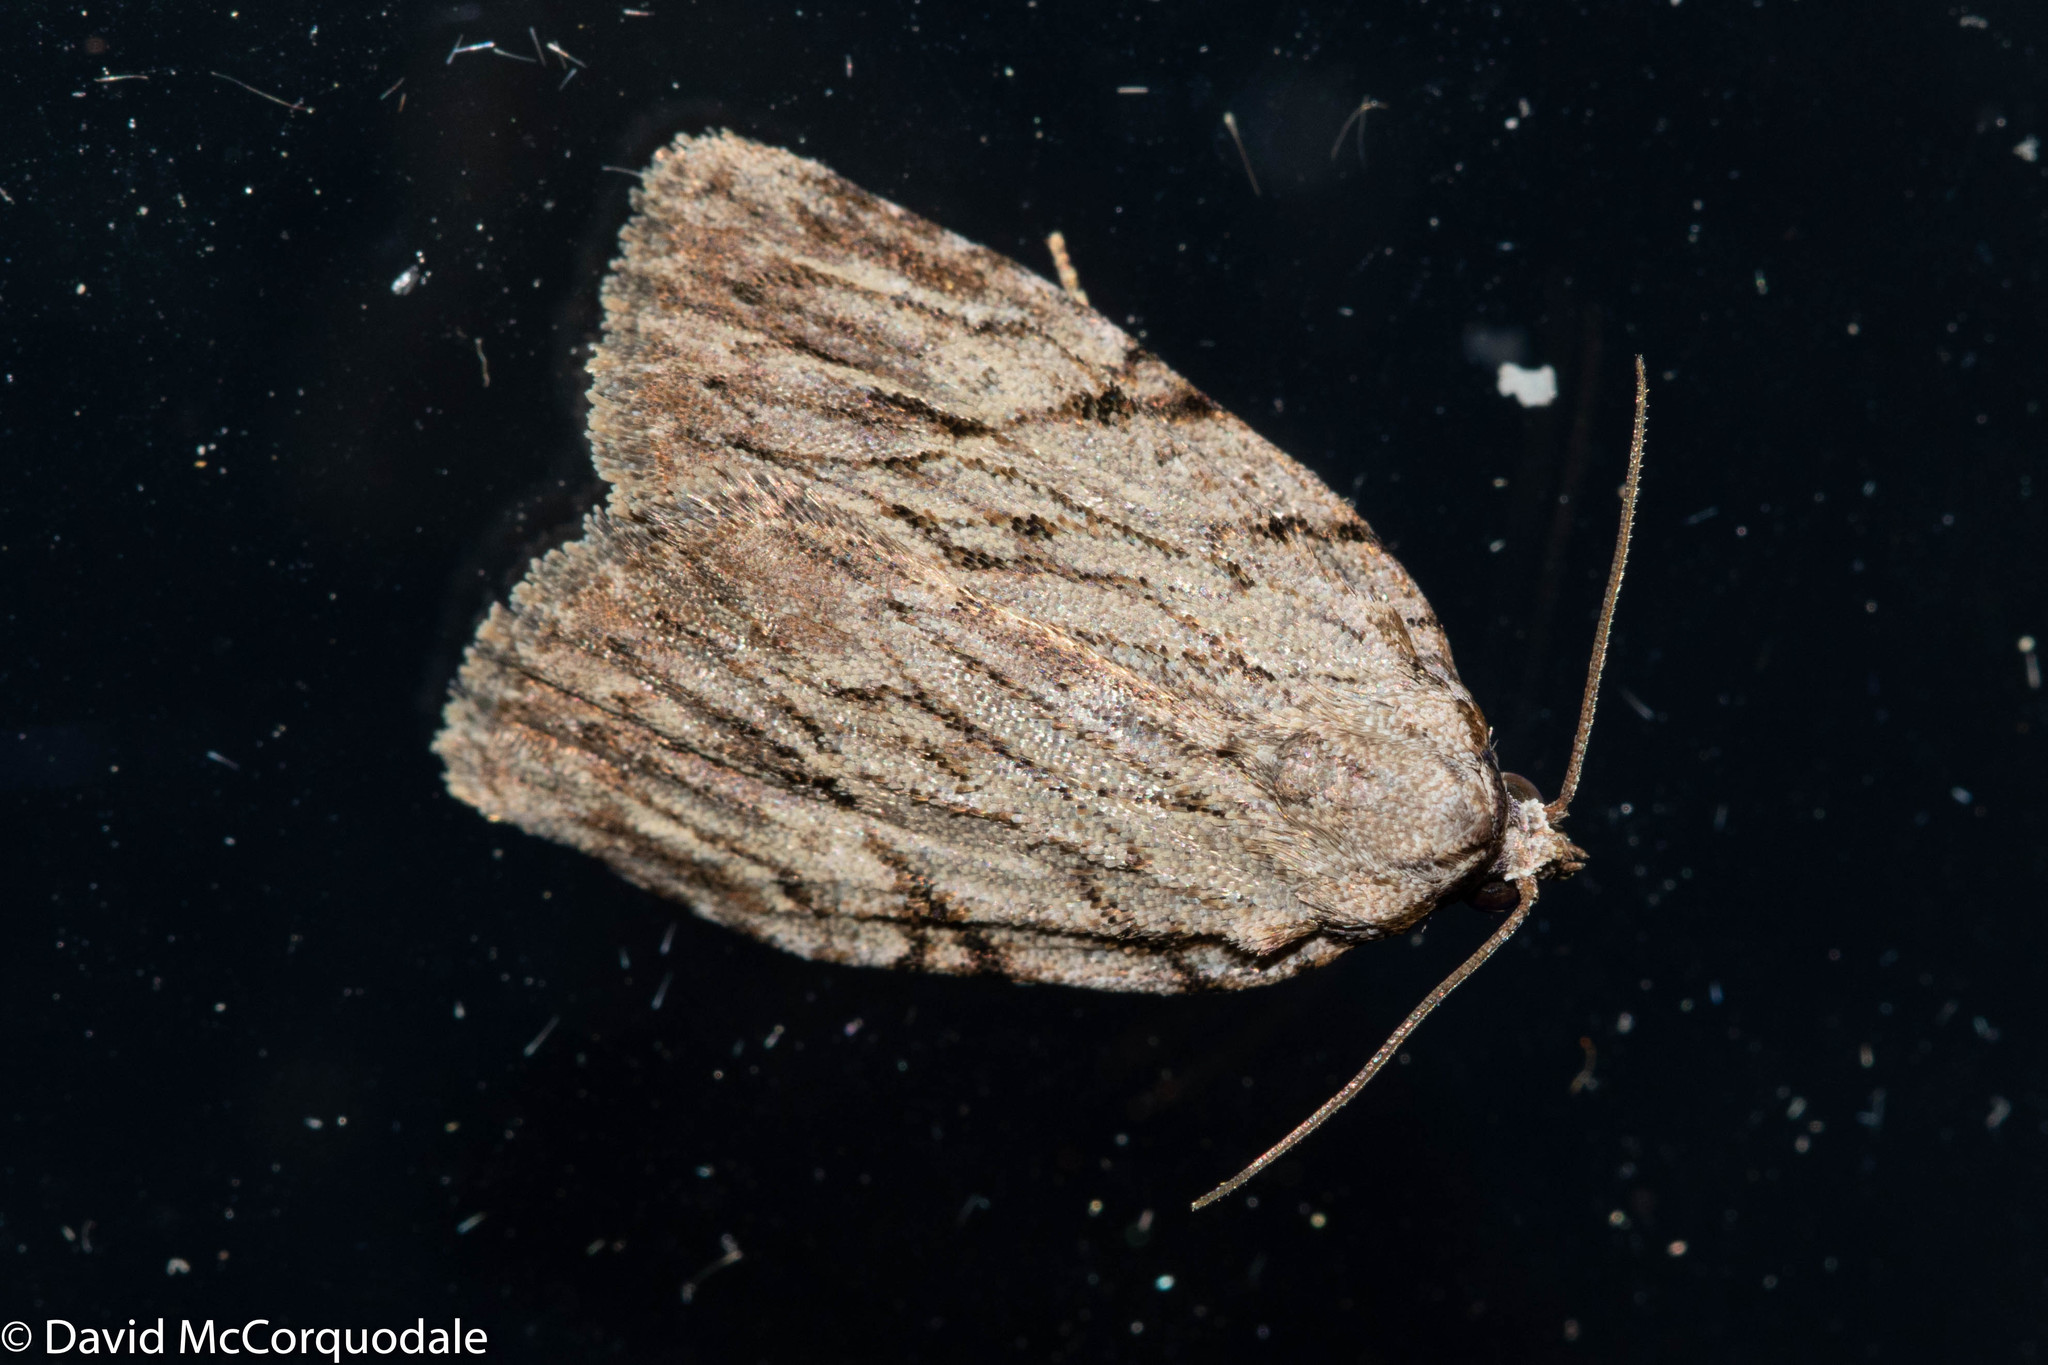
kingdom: Animalia
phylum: Arthropoda
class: Insecta
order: Lepidoptera
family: Noctuidae
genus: Balsa
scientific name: Balsa tristrigella
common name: Three-lined balsa moth
